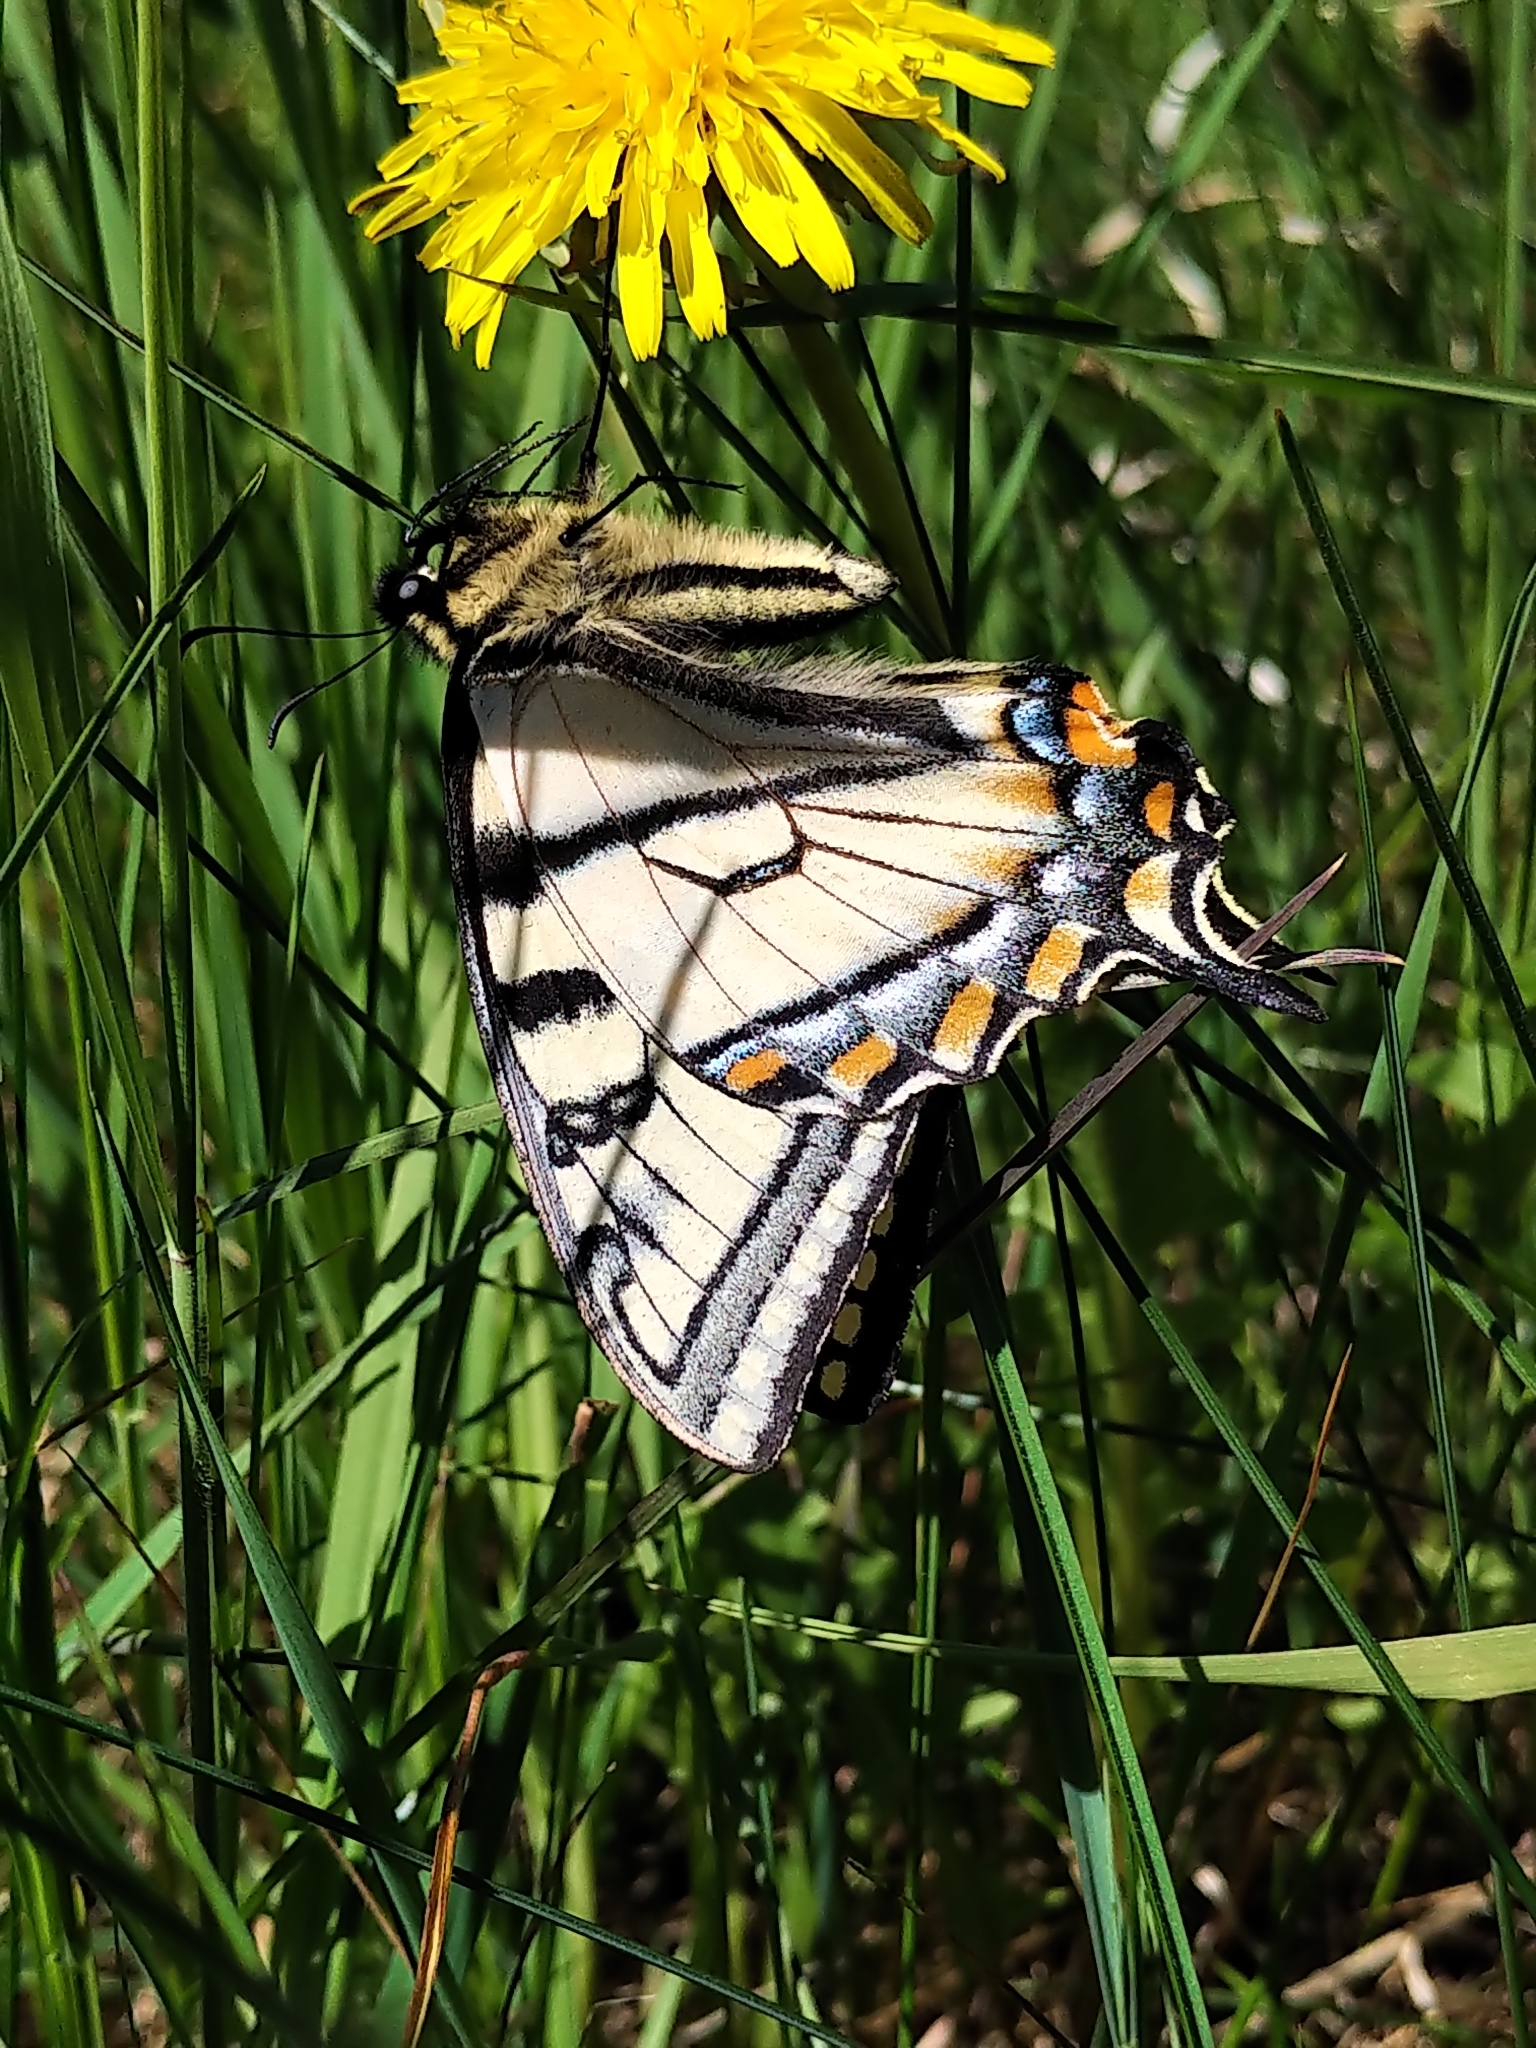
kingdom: Animalia
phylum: Arthropoda
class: Insecta
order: Lepidoptera
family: Papilionidae
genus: Papilio
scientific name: Papilio canadensis
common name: Canadian tiger swallowtail
